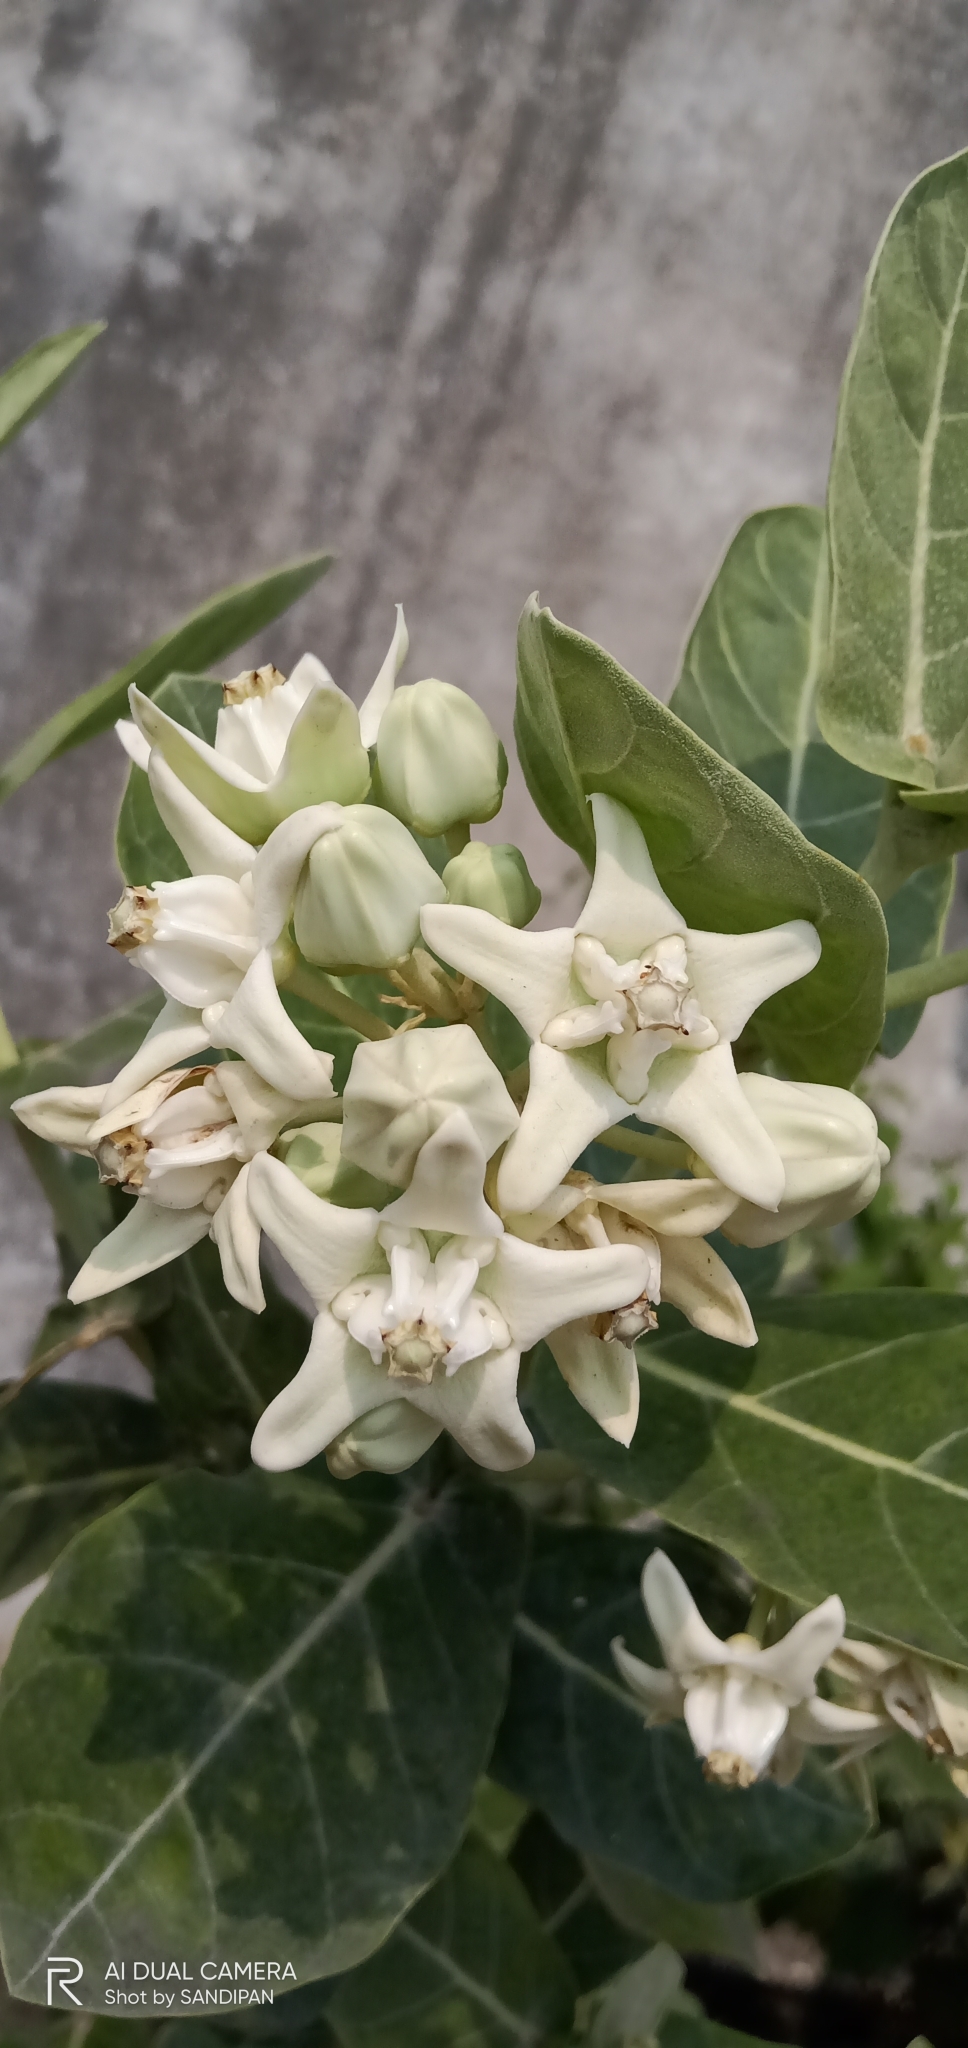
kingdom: Plantae
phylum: Tracheophyta
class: Magnoliopsida
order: Gentianales
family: Apocynaceae
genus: Calotropis
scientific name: Calotropis gigantea
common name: Crown flower
